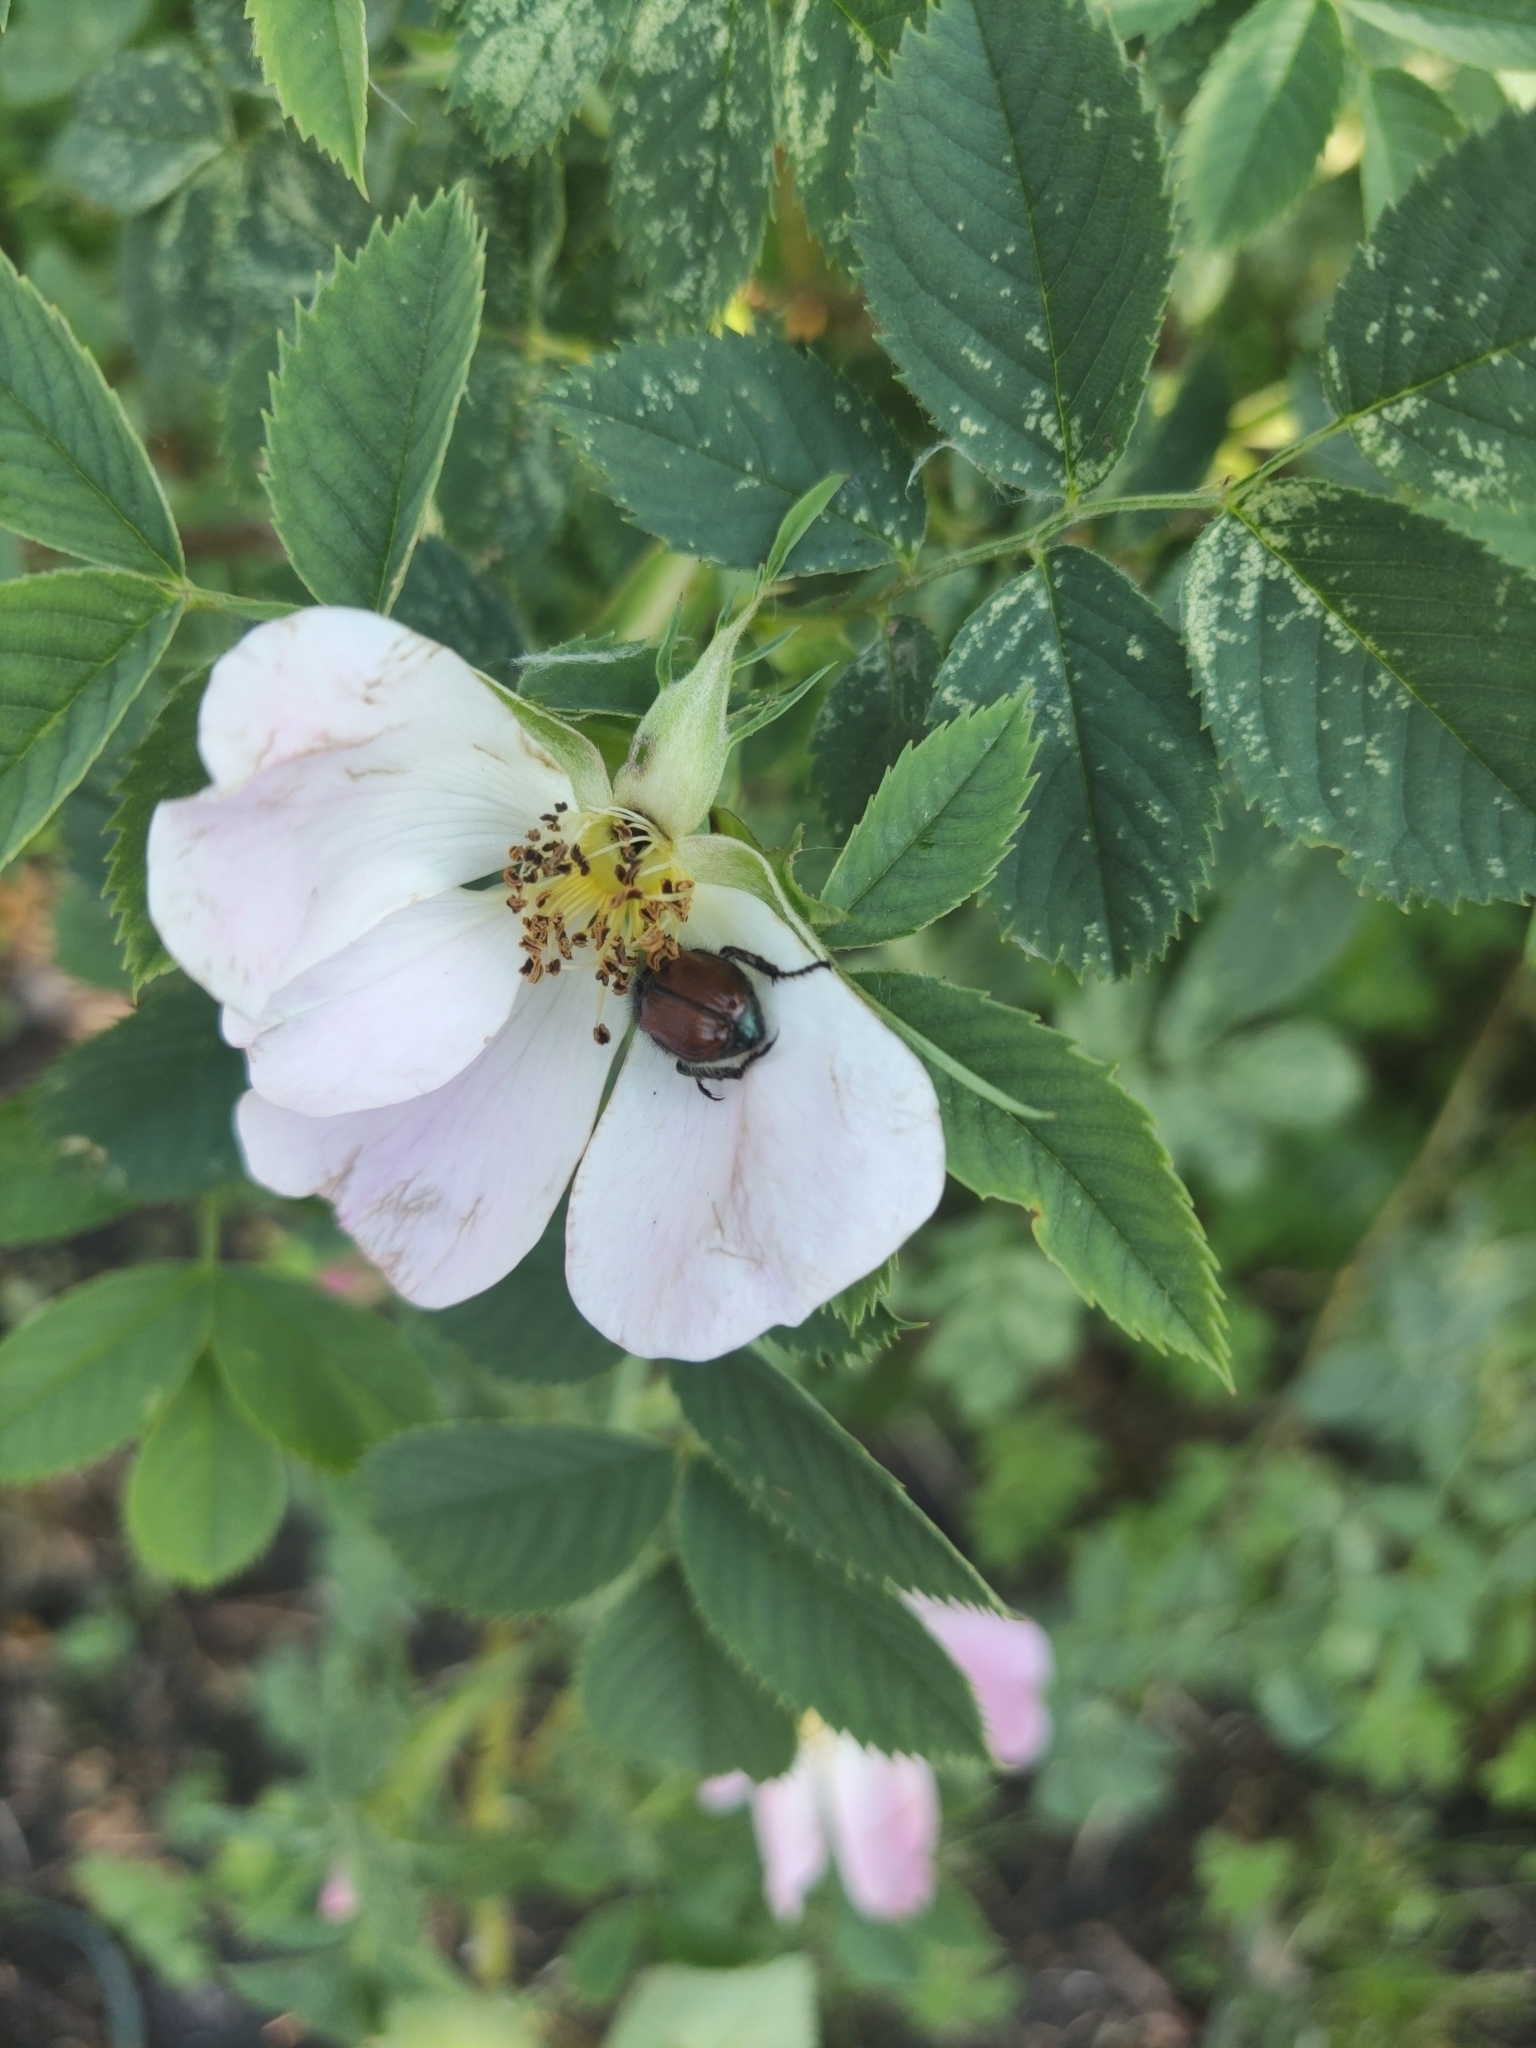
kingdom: Animalia
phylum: Arthropoda
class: Insecta
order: Coleoptera
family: Scarabaeidae
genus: Phyllopertha
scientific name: Phyllopertha horticola
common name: Garden chafer
